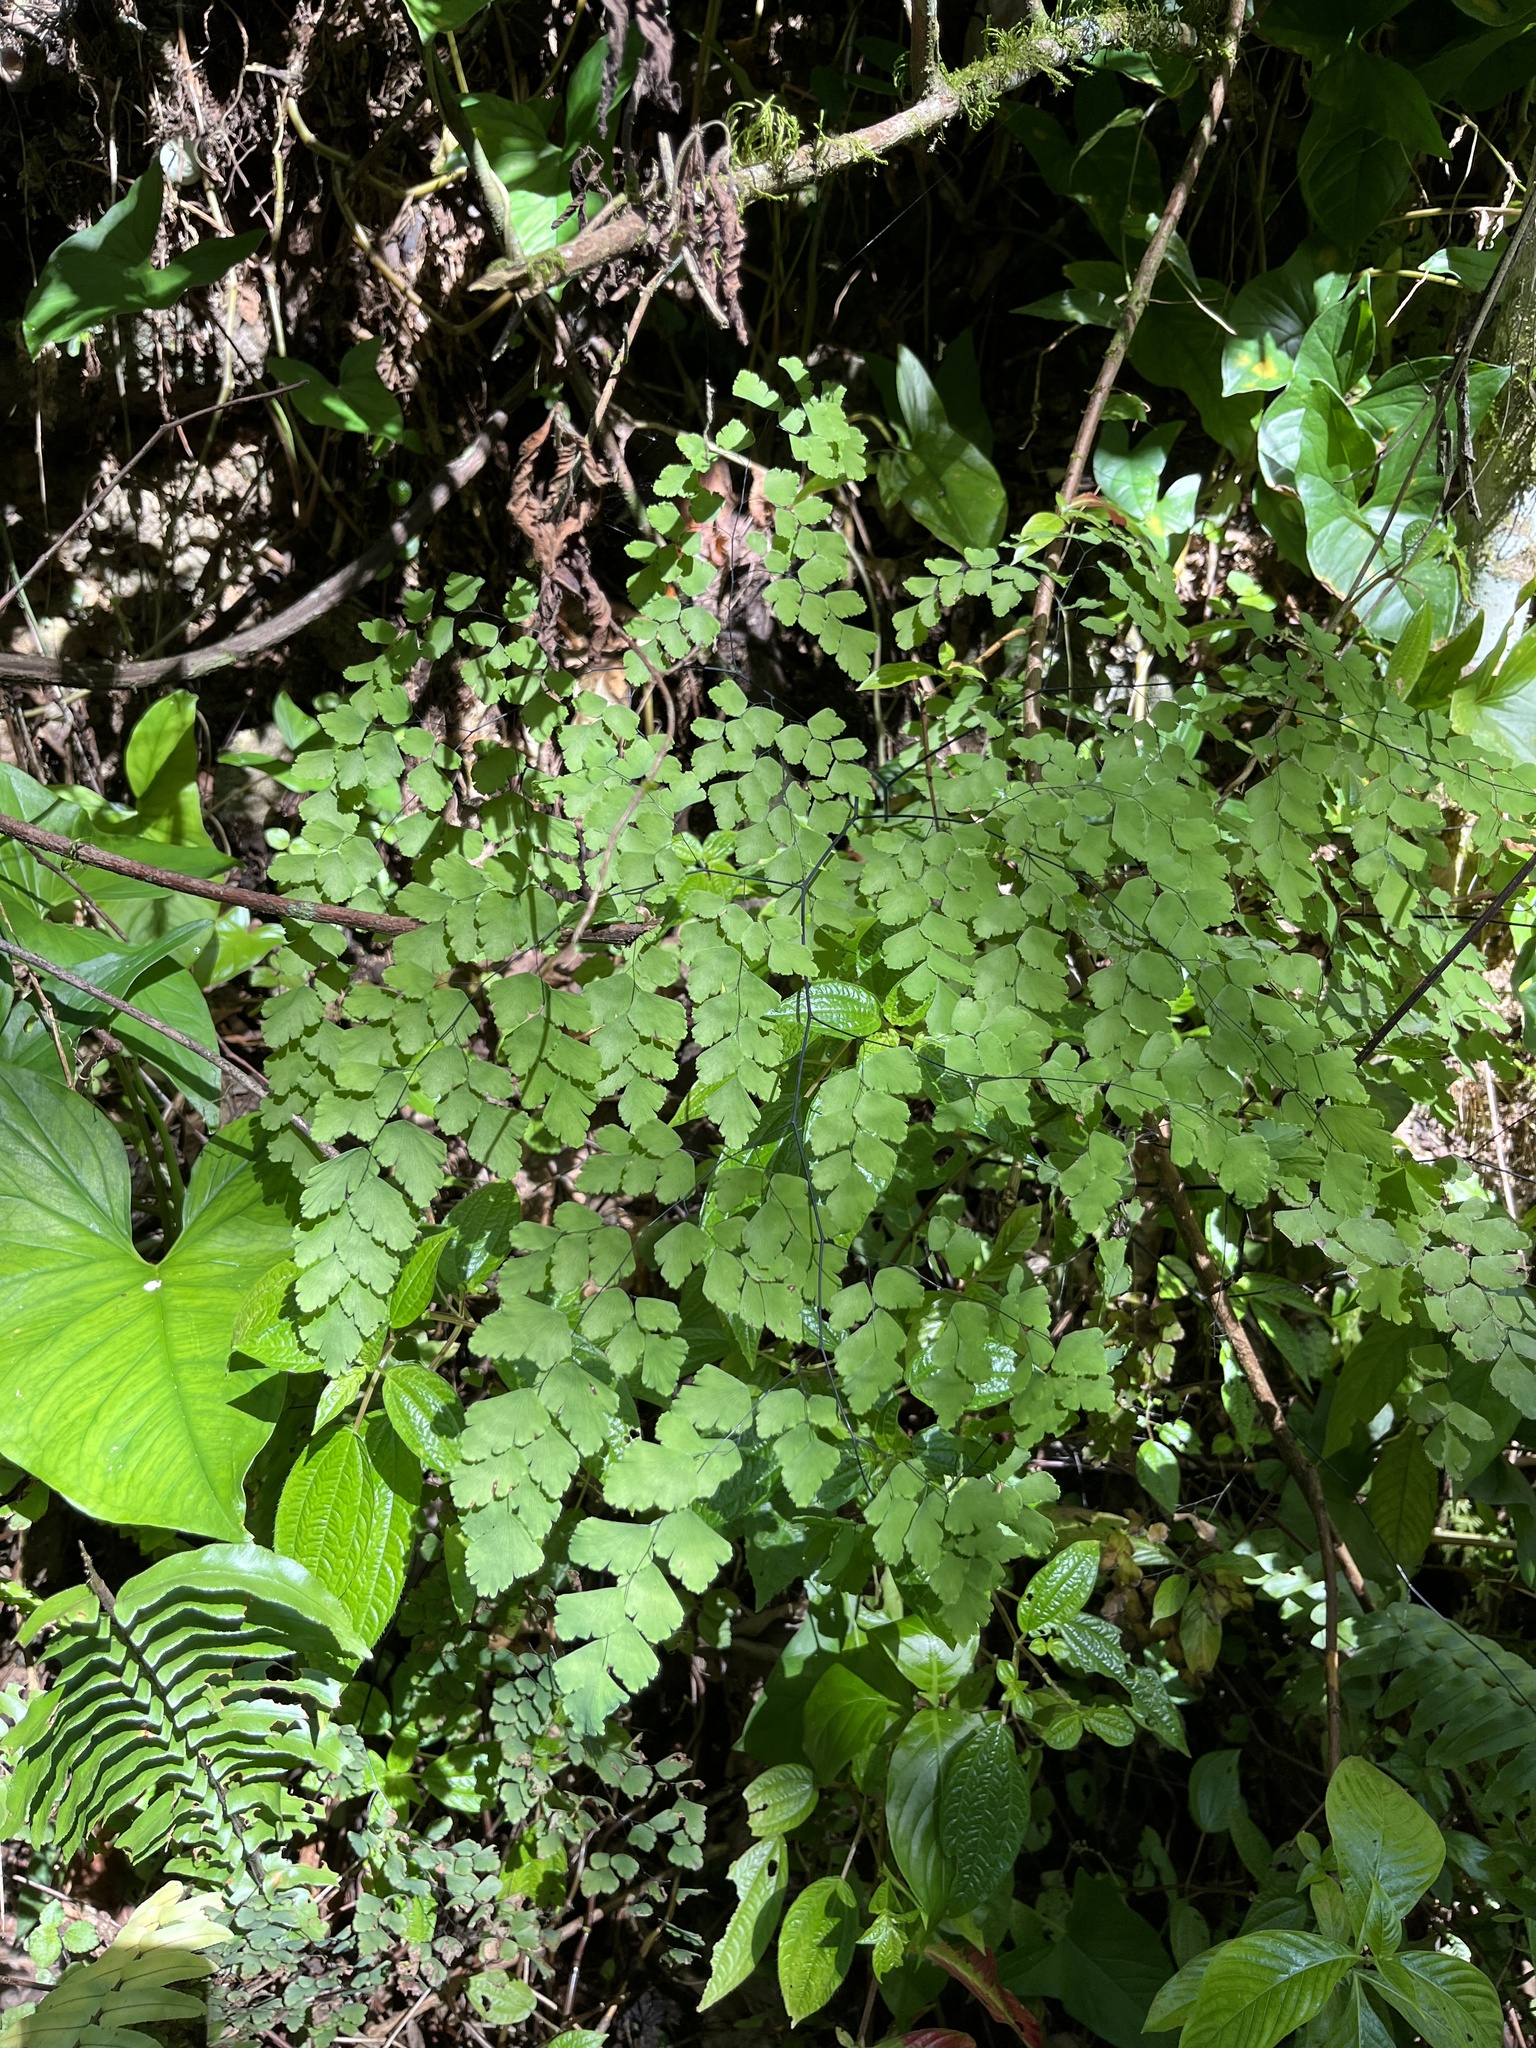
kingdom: Plantae
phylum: Tracheophyta
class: Polypodiopsida
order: Polypodiales
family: Pteridaceae
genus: Adiantum
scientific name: Adiantum tenerum
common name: Fan maidenhair
